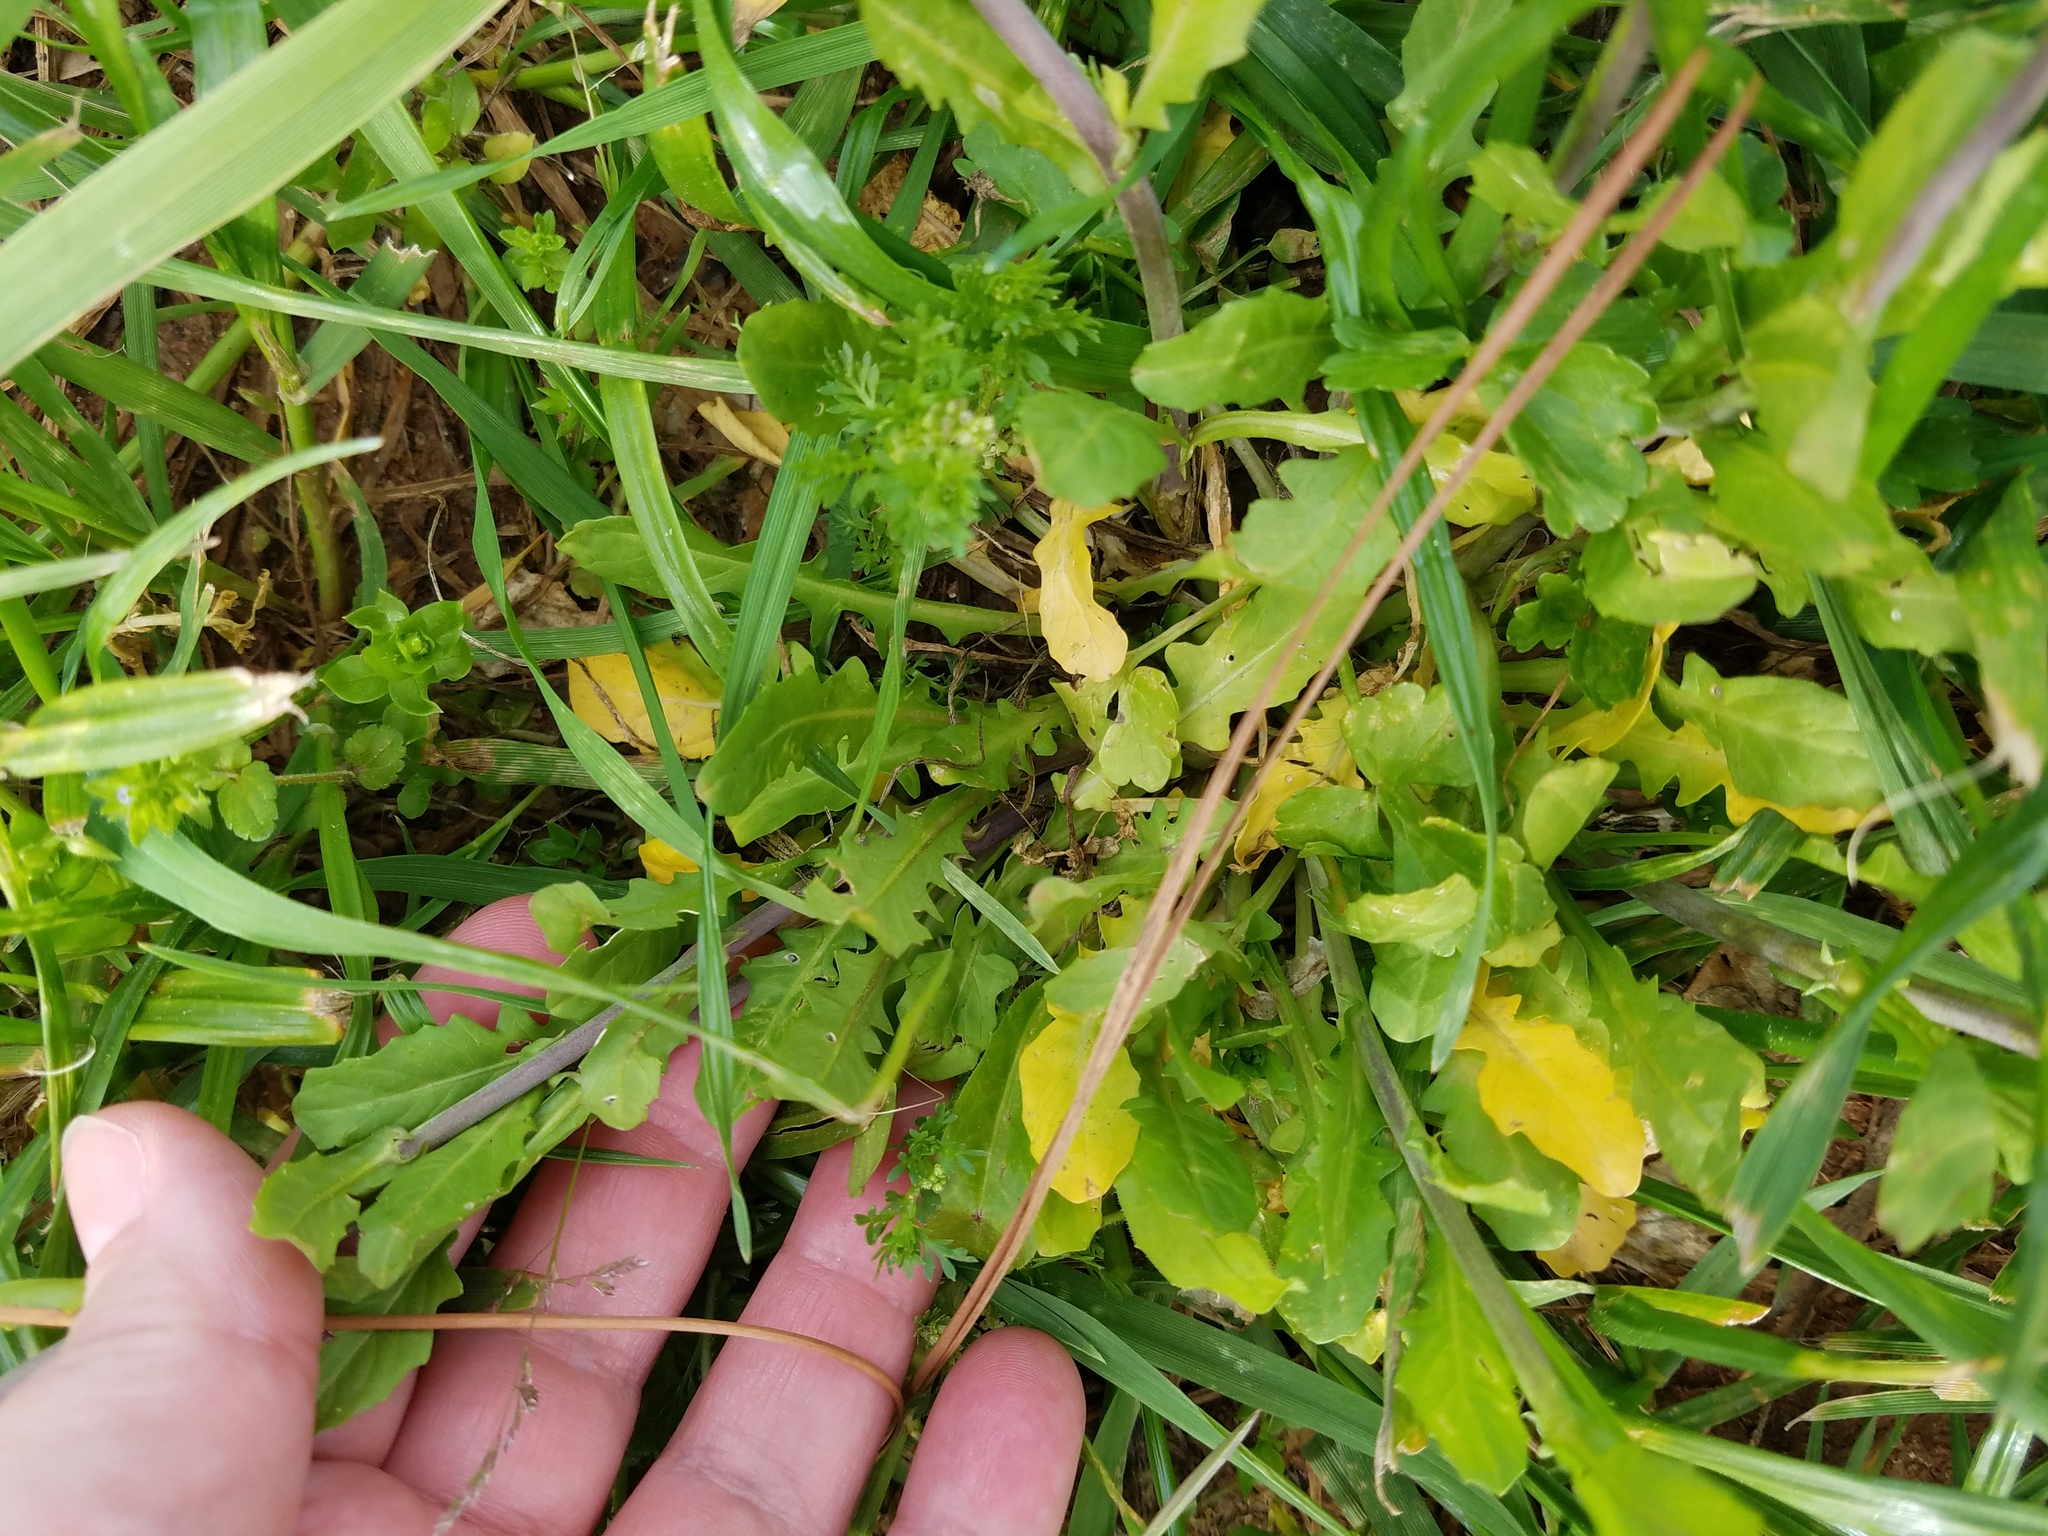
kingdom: Plantae
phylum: Tracheophyta
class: Magnoliopsida
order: Brassicales
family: Brassicaceae
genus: Mummenhoffia
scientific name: Mummenhoffia alliacea
